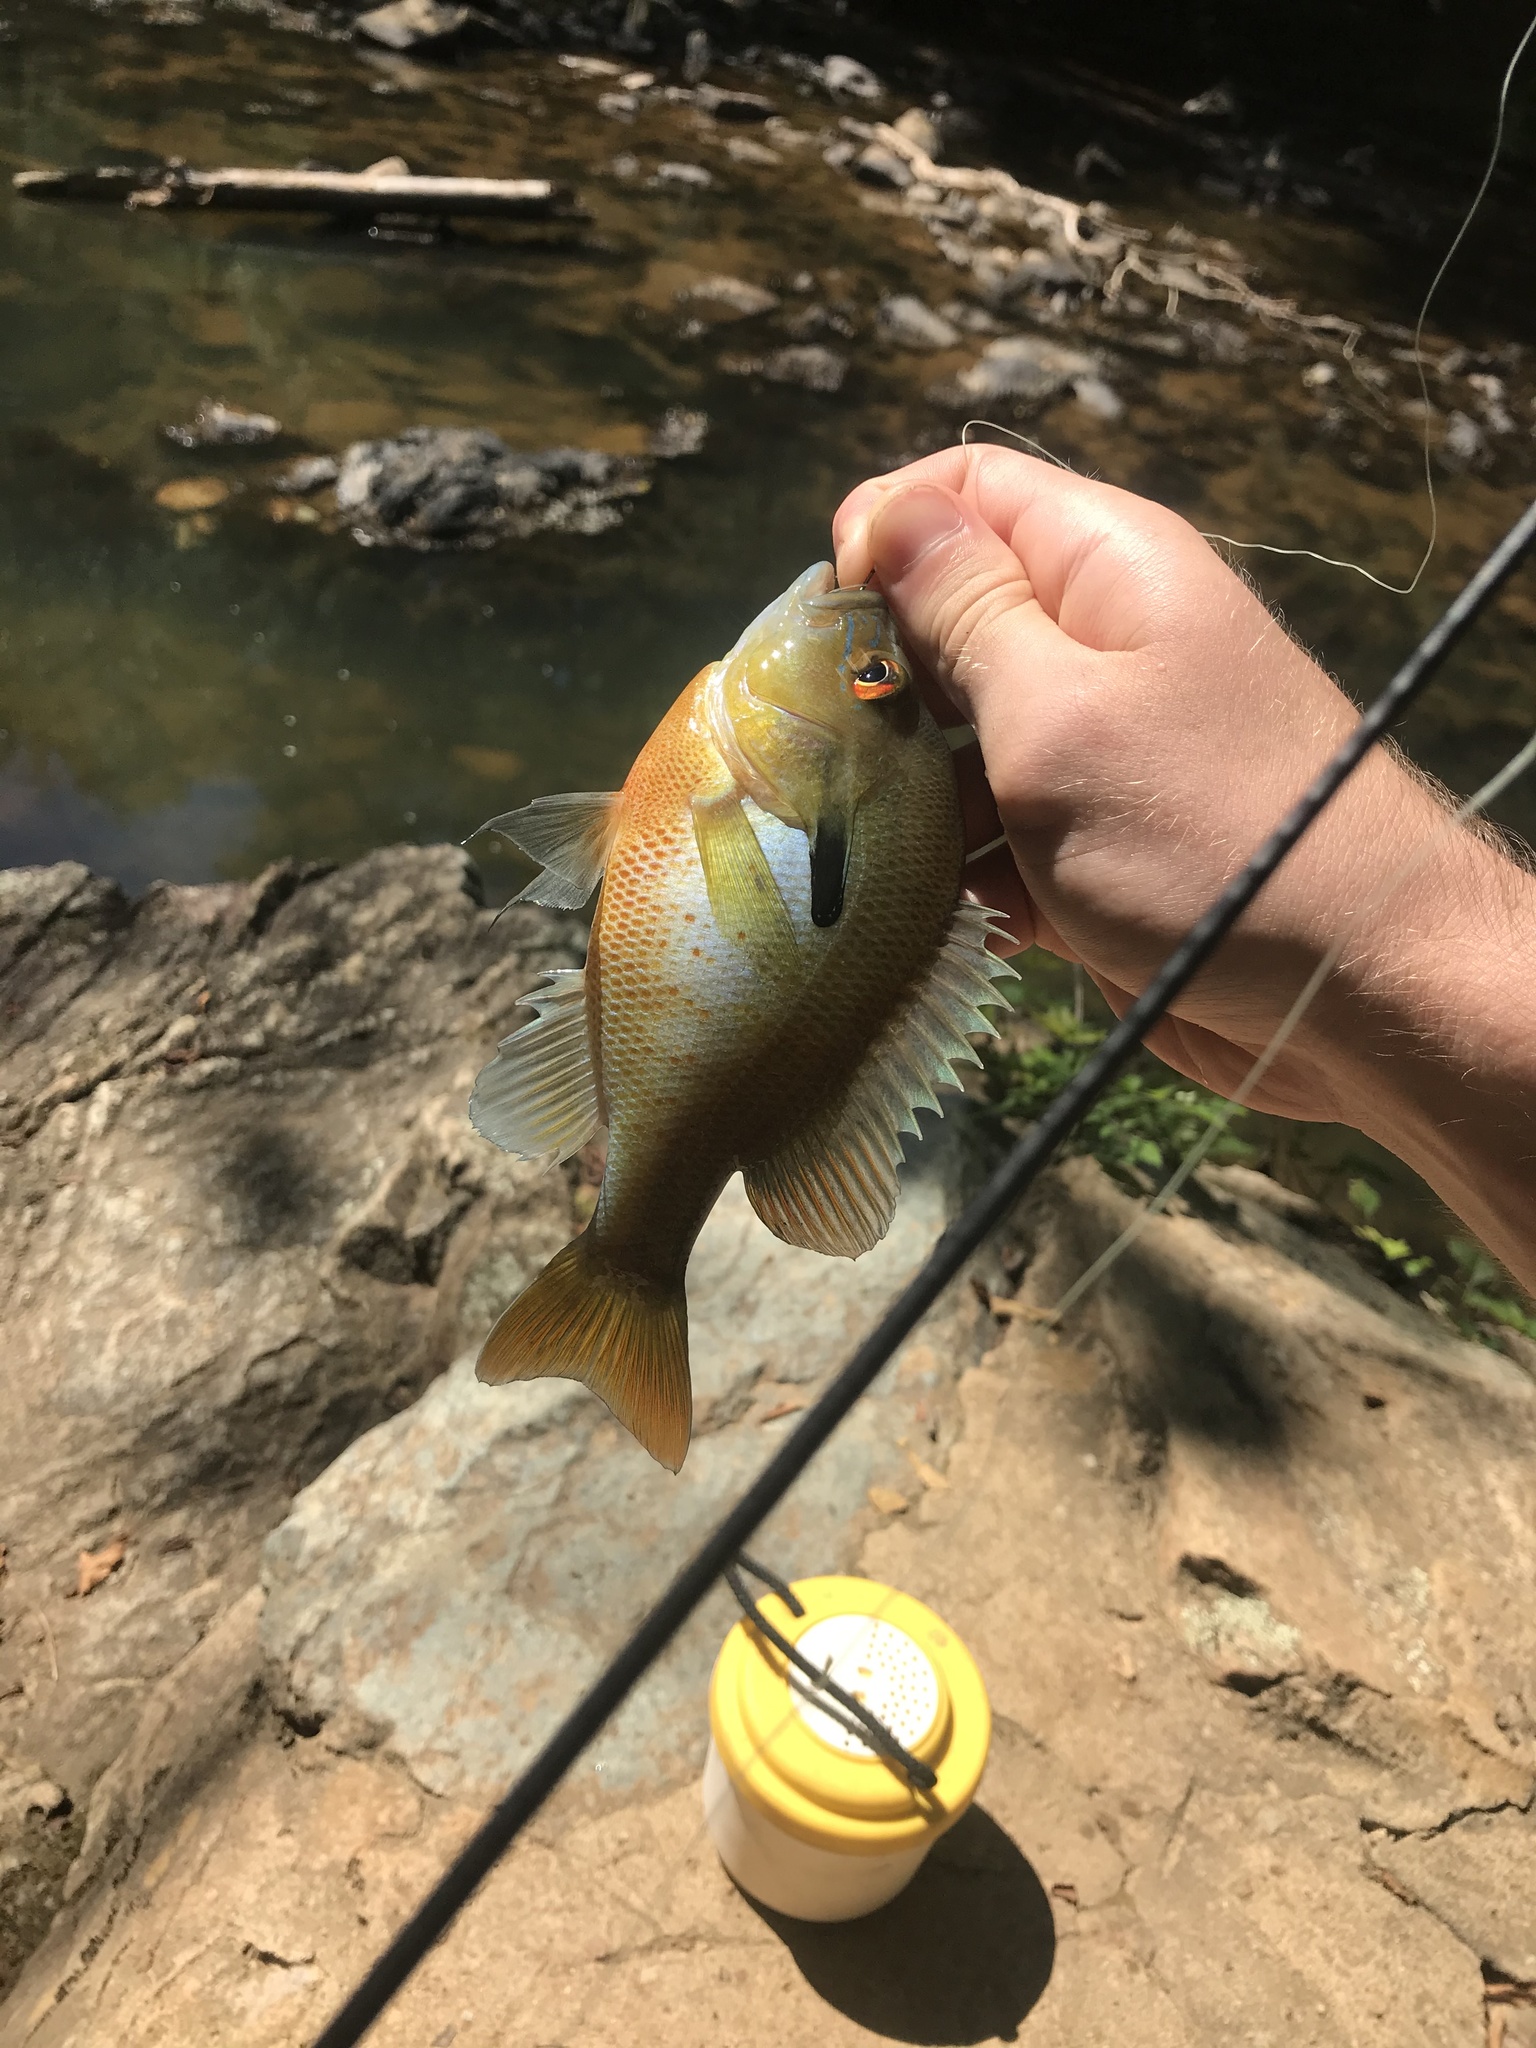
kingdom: Animalia
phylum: Chordata
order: Perciformes
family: Centrarchidae
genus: Lepomis
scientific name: Lepomis auritus
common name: Redbreast sunfish
